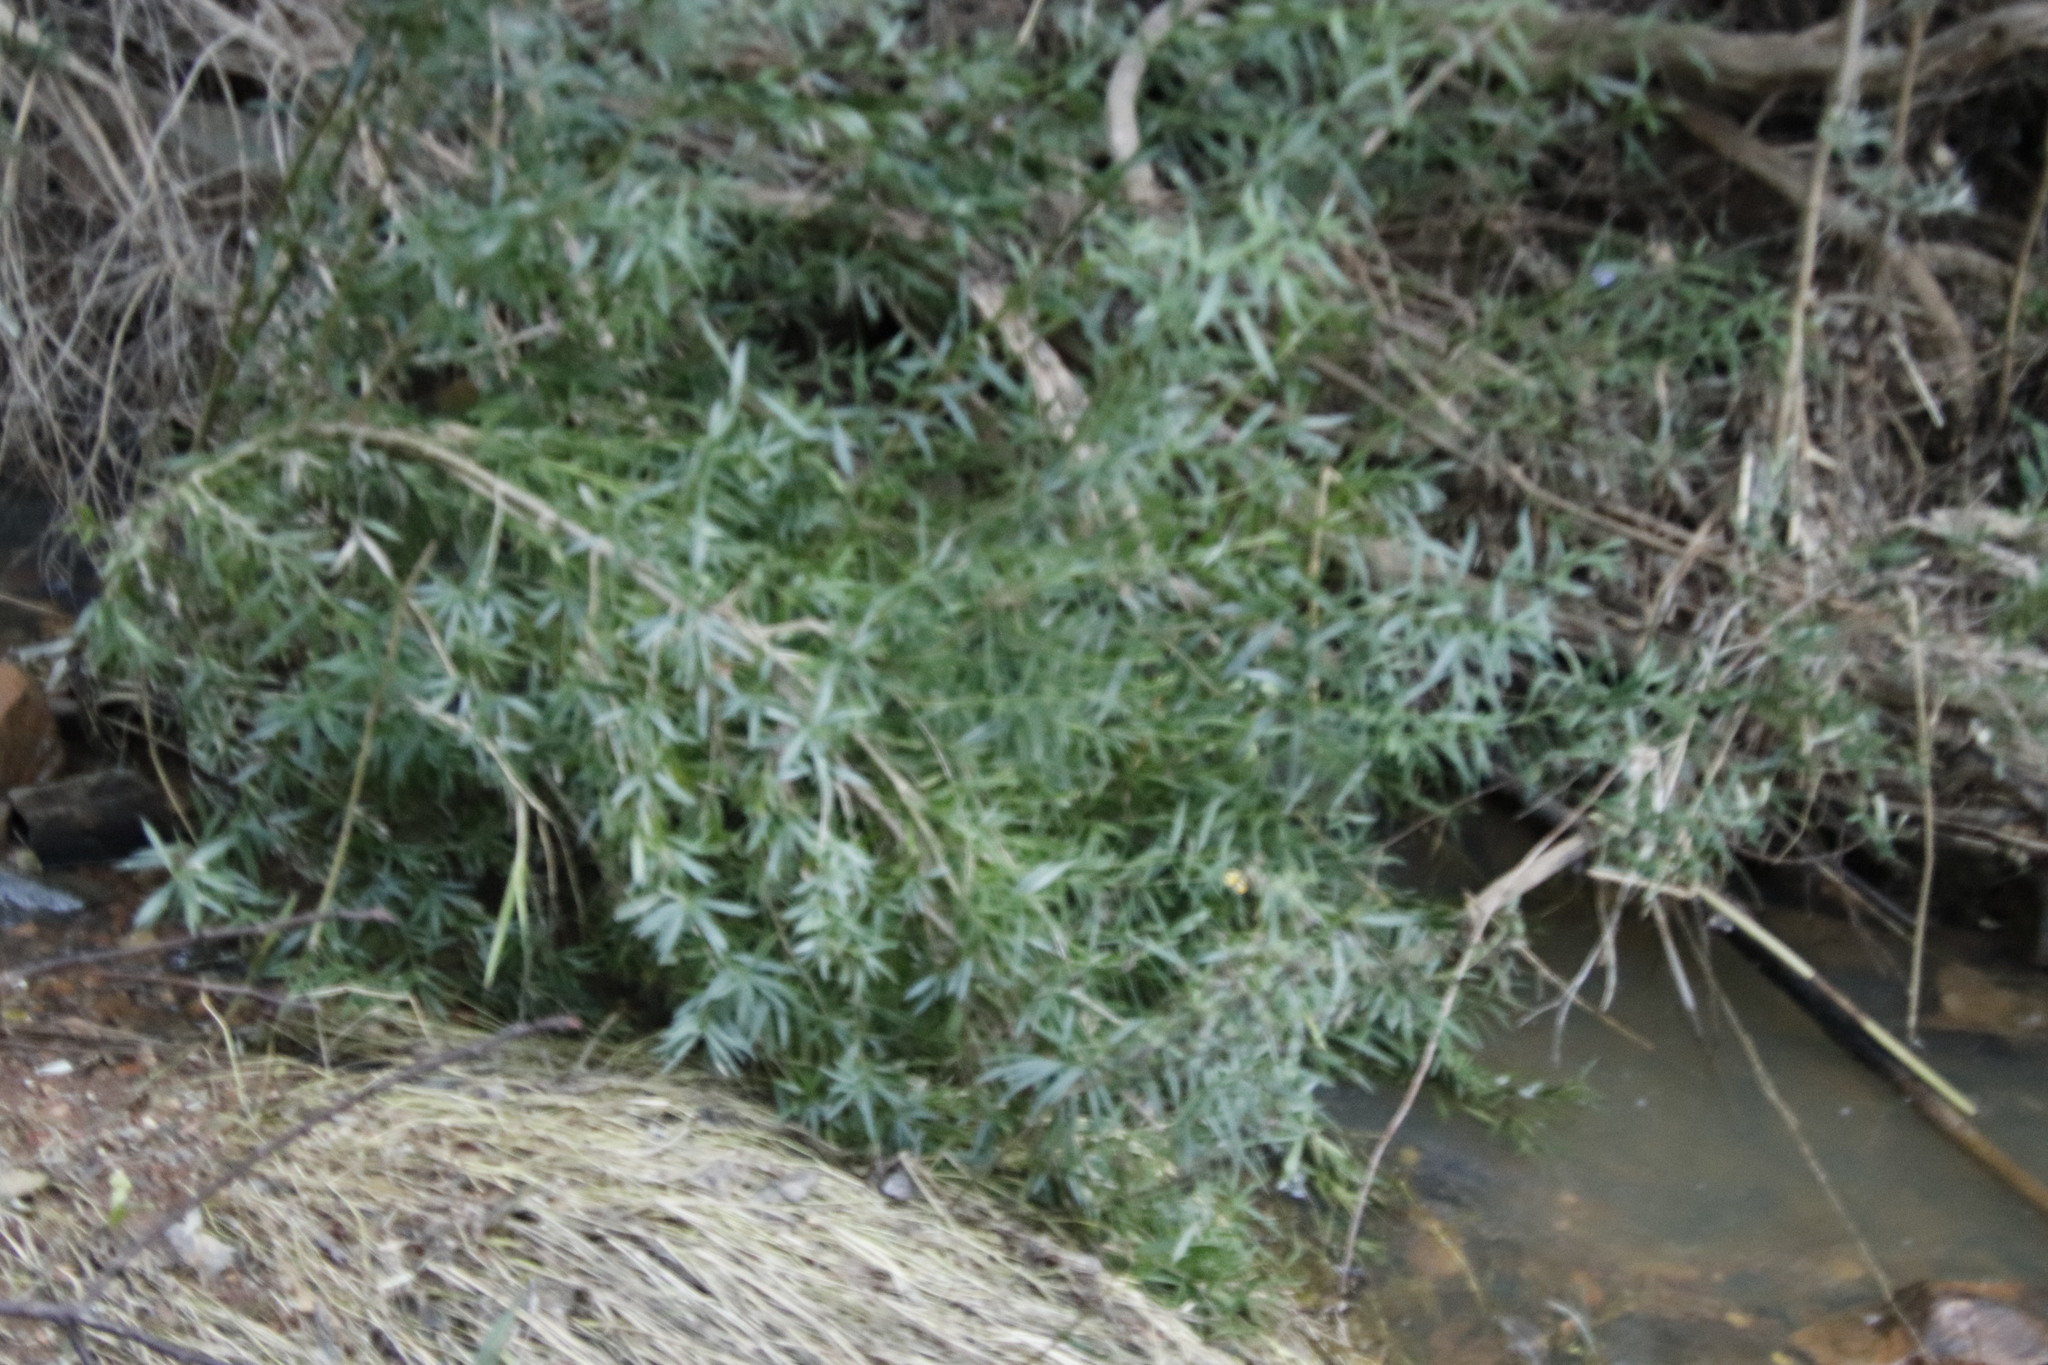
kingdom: Plantae
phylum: Tracheophyta
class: Magnoliopsida
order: Lamiales
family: Scrophulariaceae
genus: Freylinia
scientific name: Freylinia lanceolata
